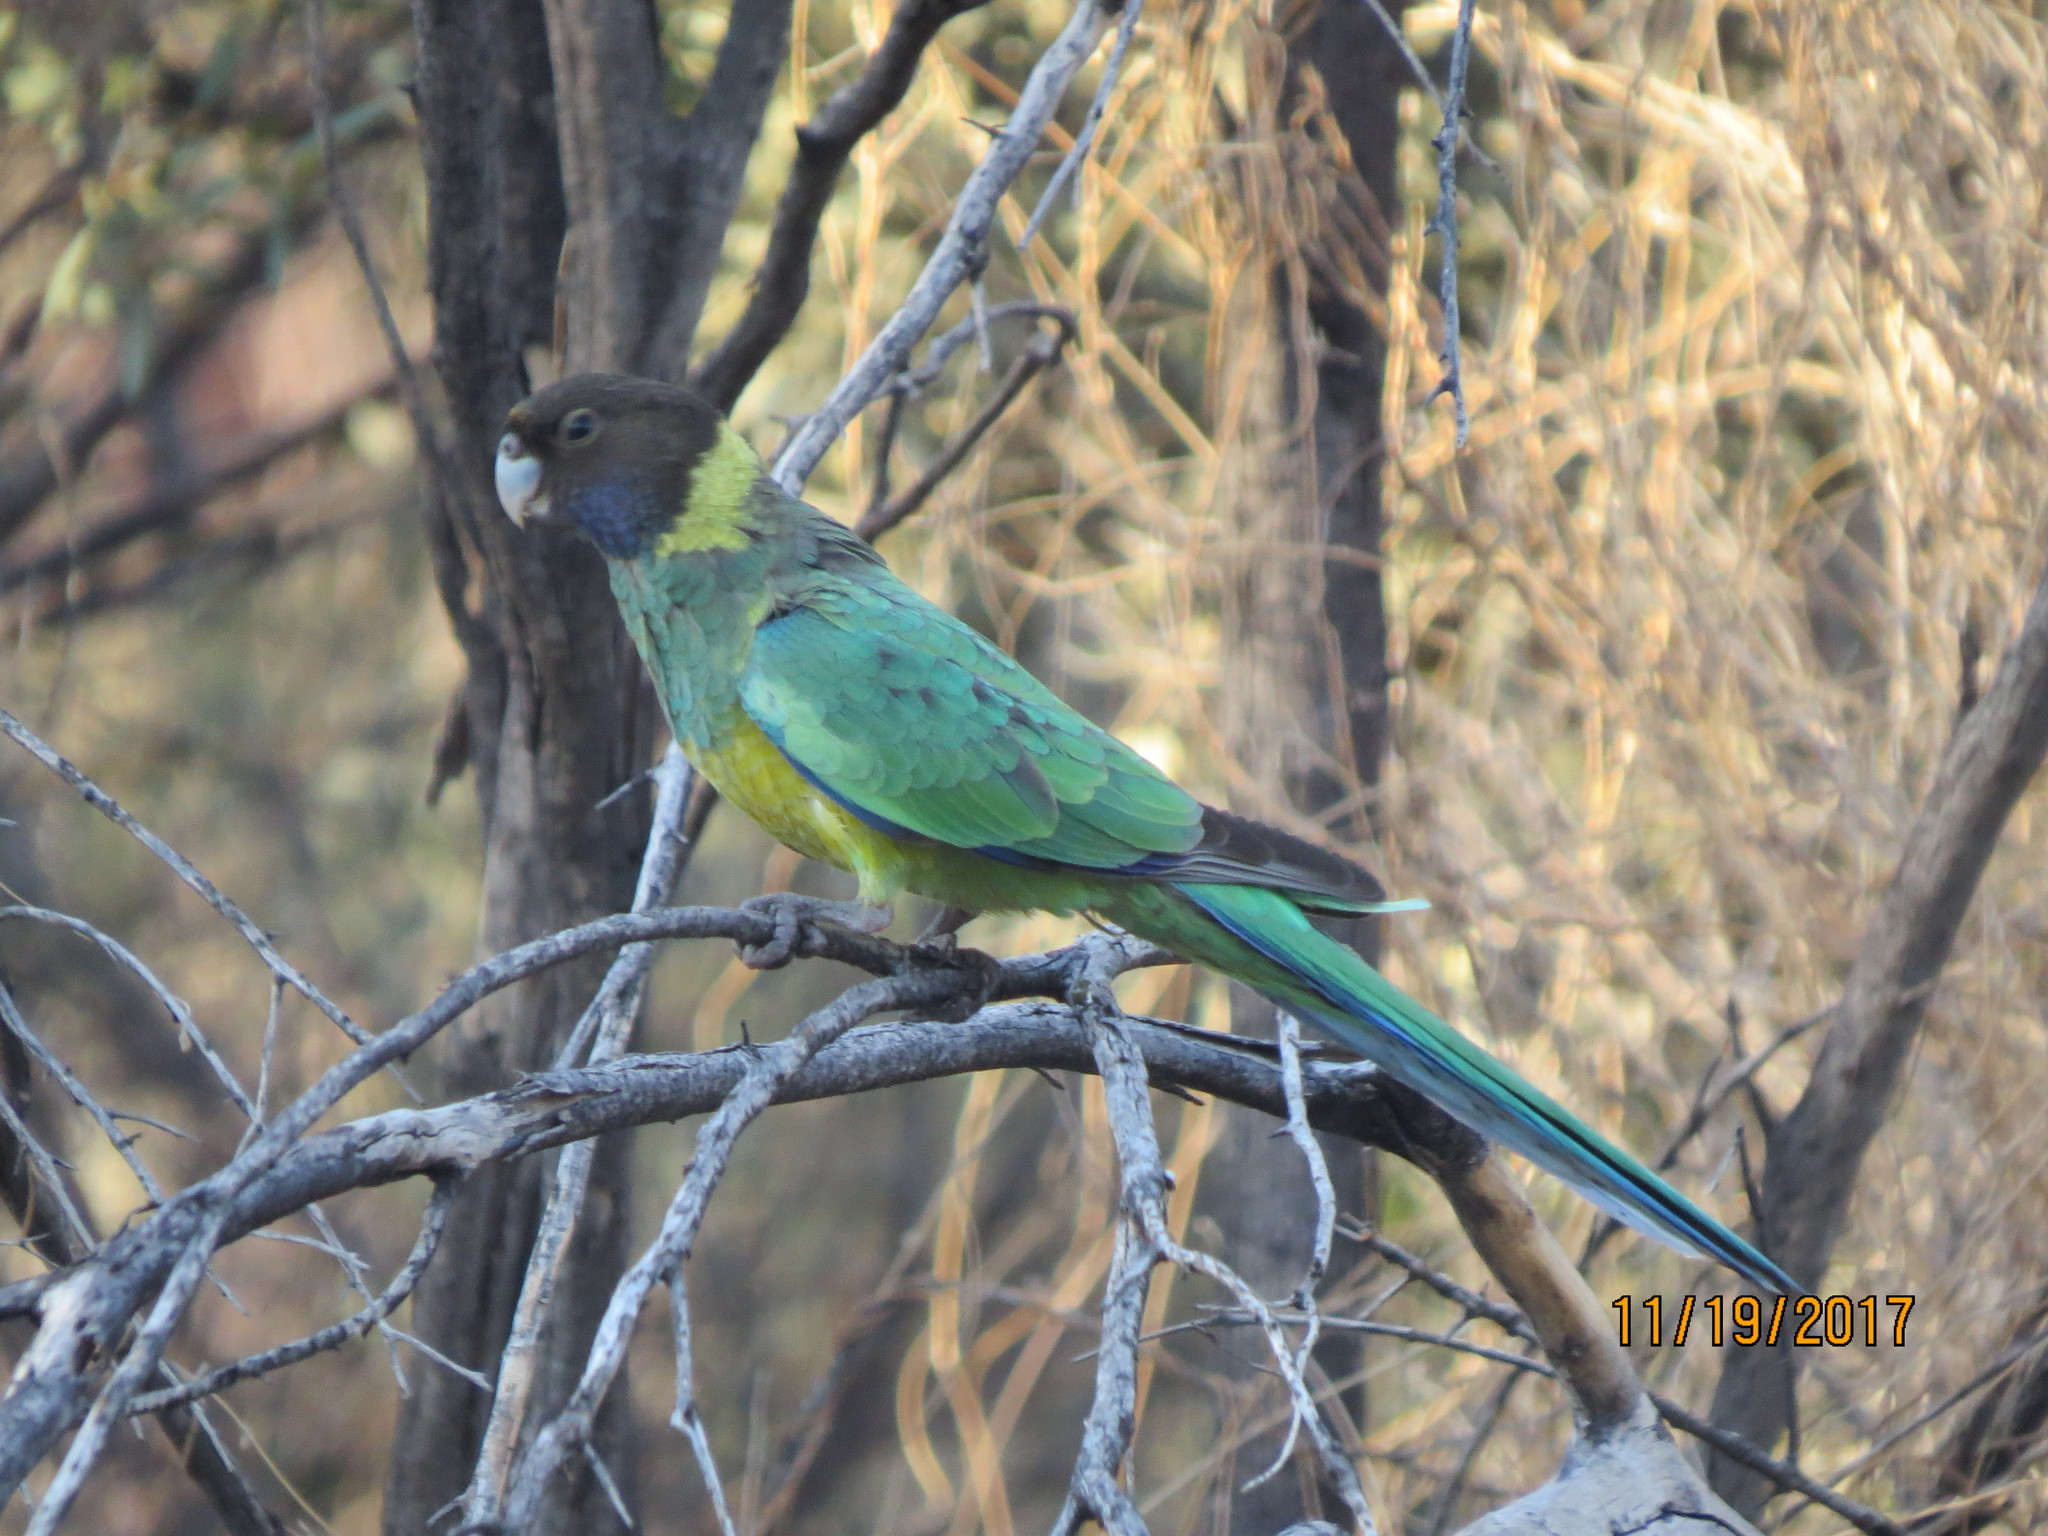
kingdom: Animalia
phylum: Chordata
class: Aves
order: Psittaciformes
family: Psittacidae
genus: Barnardius
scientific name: Barnardius zonarius
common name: Australian ringneck
